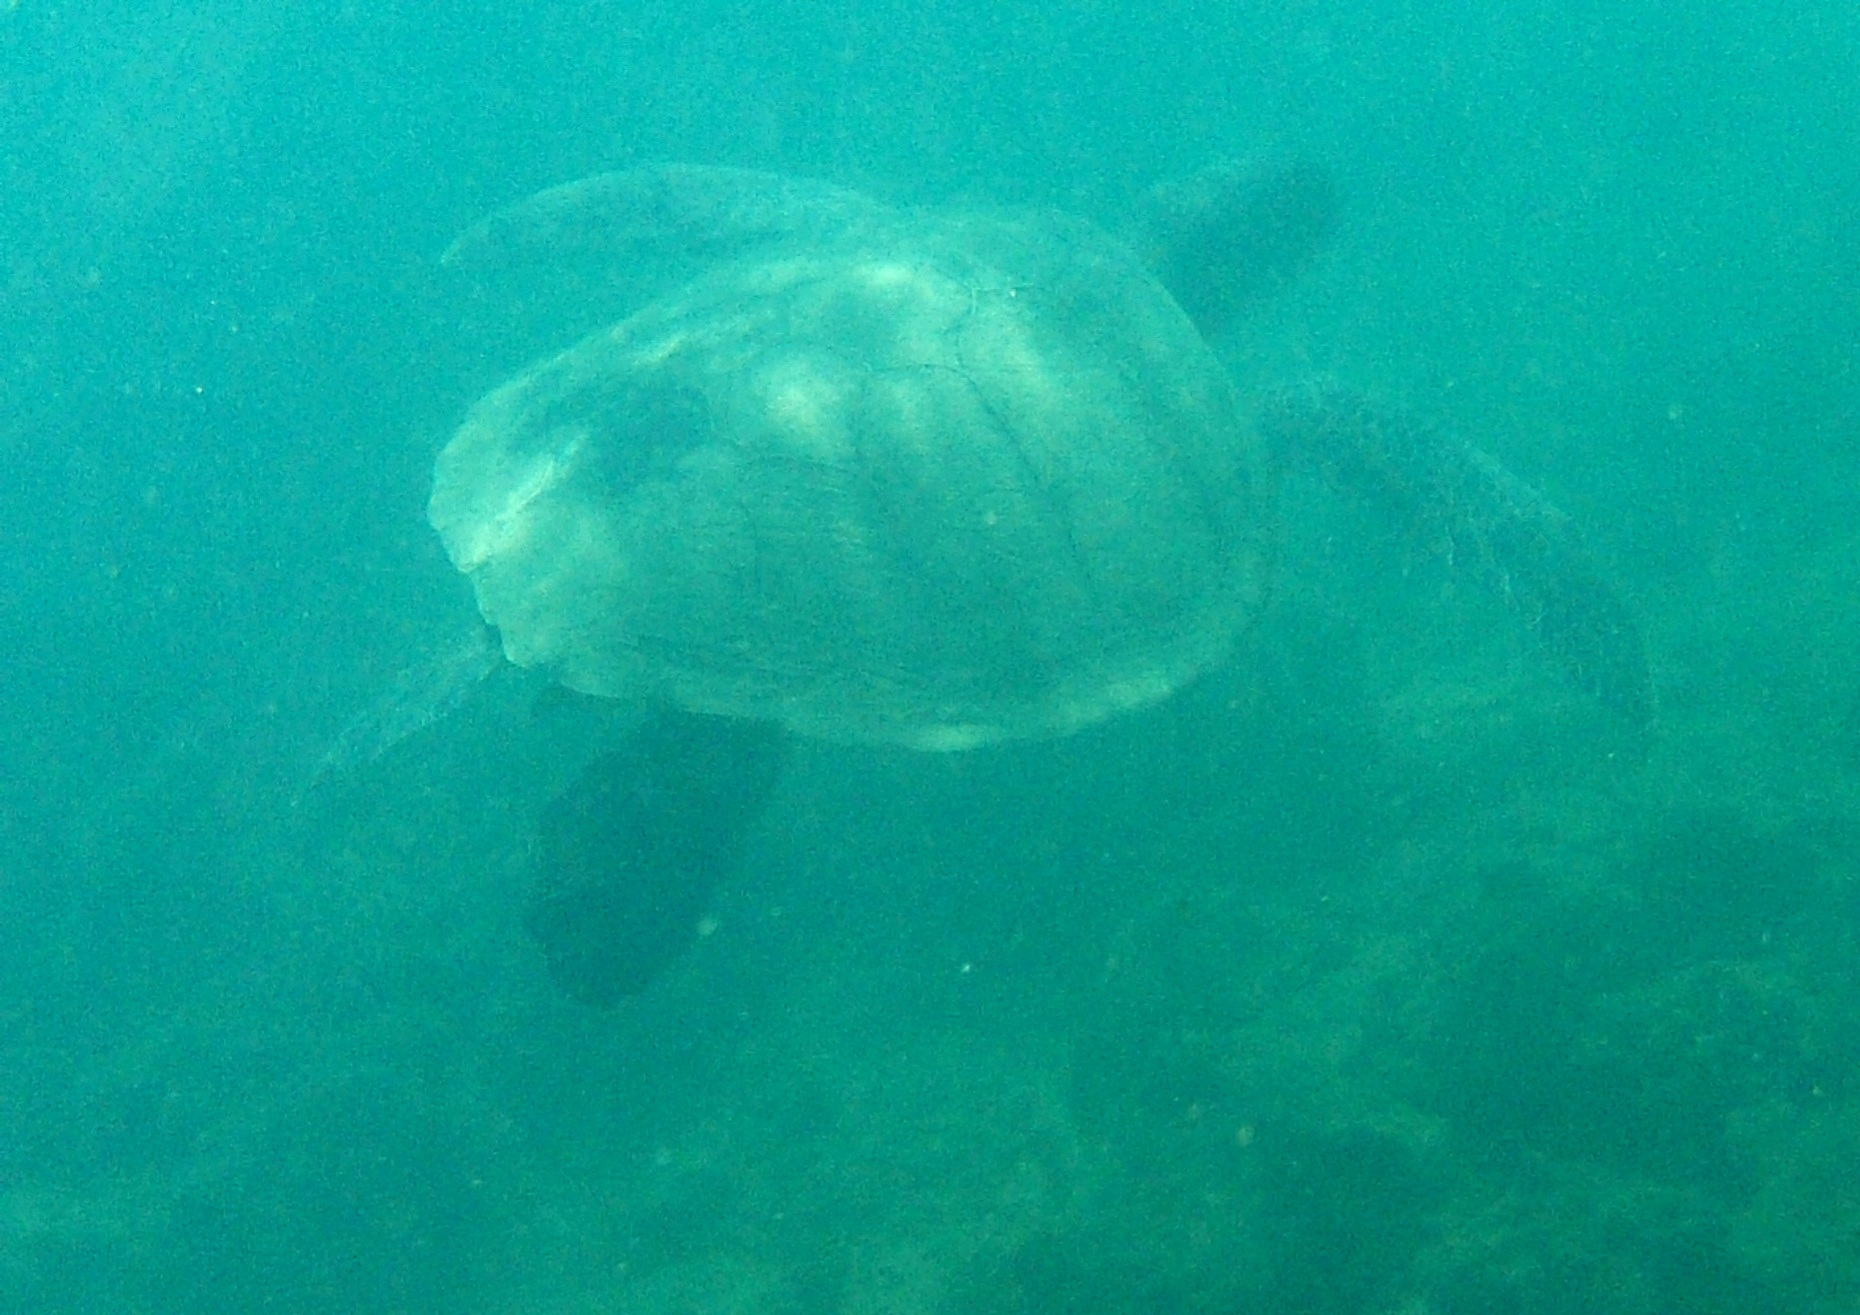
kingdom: Animalia
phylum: Chordata
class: Testudines
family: Cheloniidae
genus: Chelonia
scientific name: Chelonia mydas
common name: Green turtle
